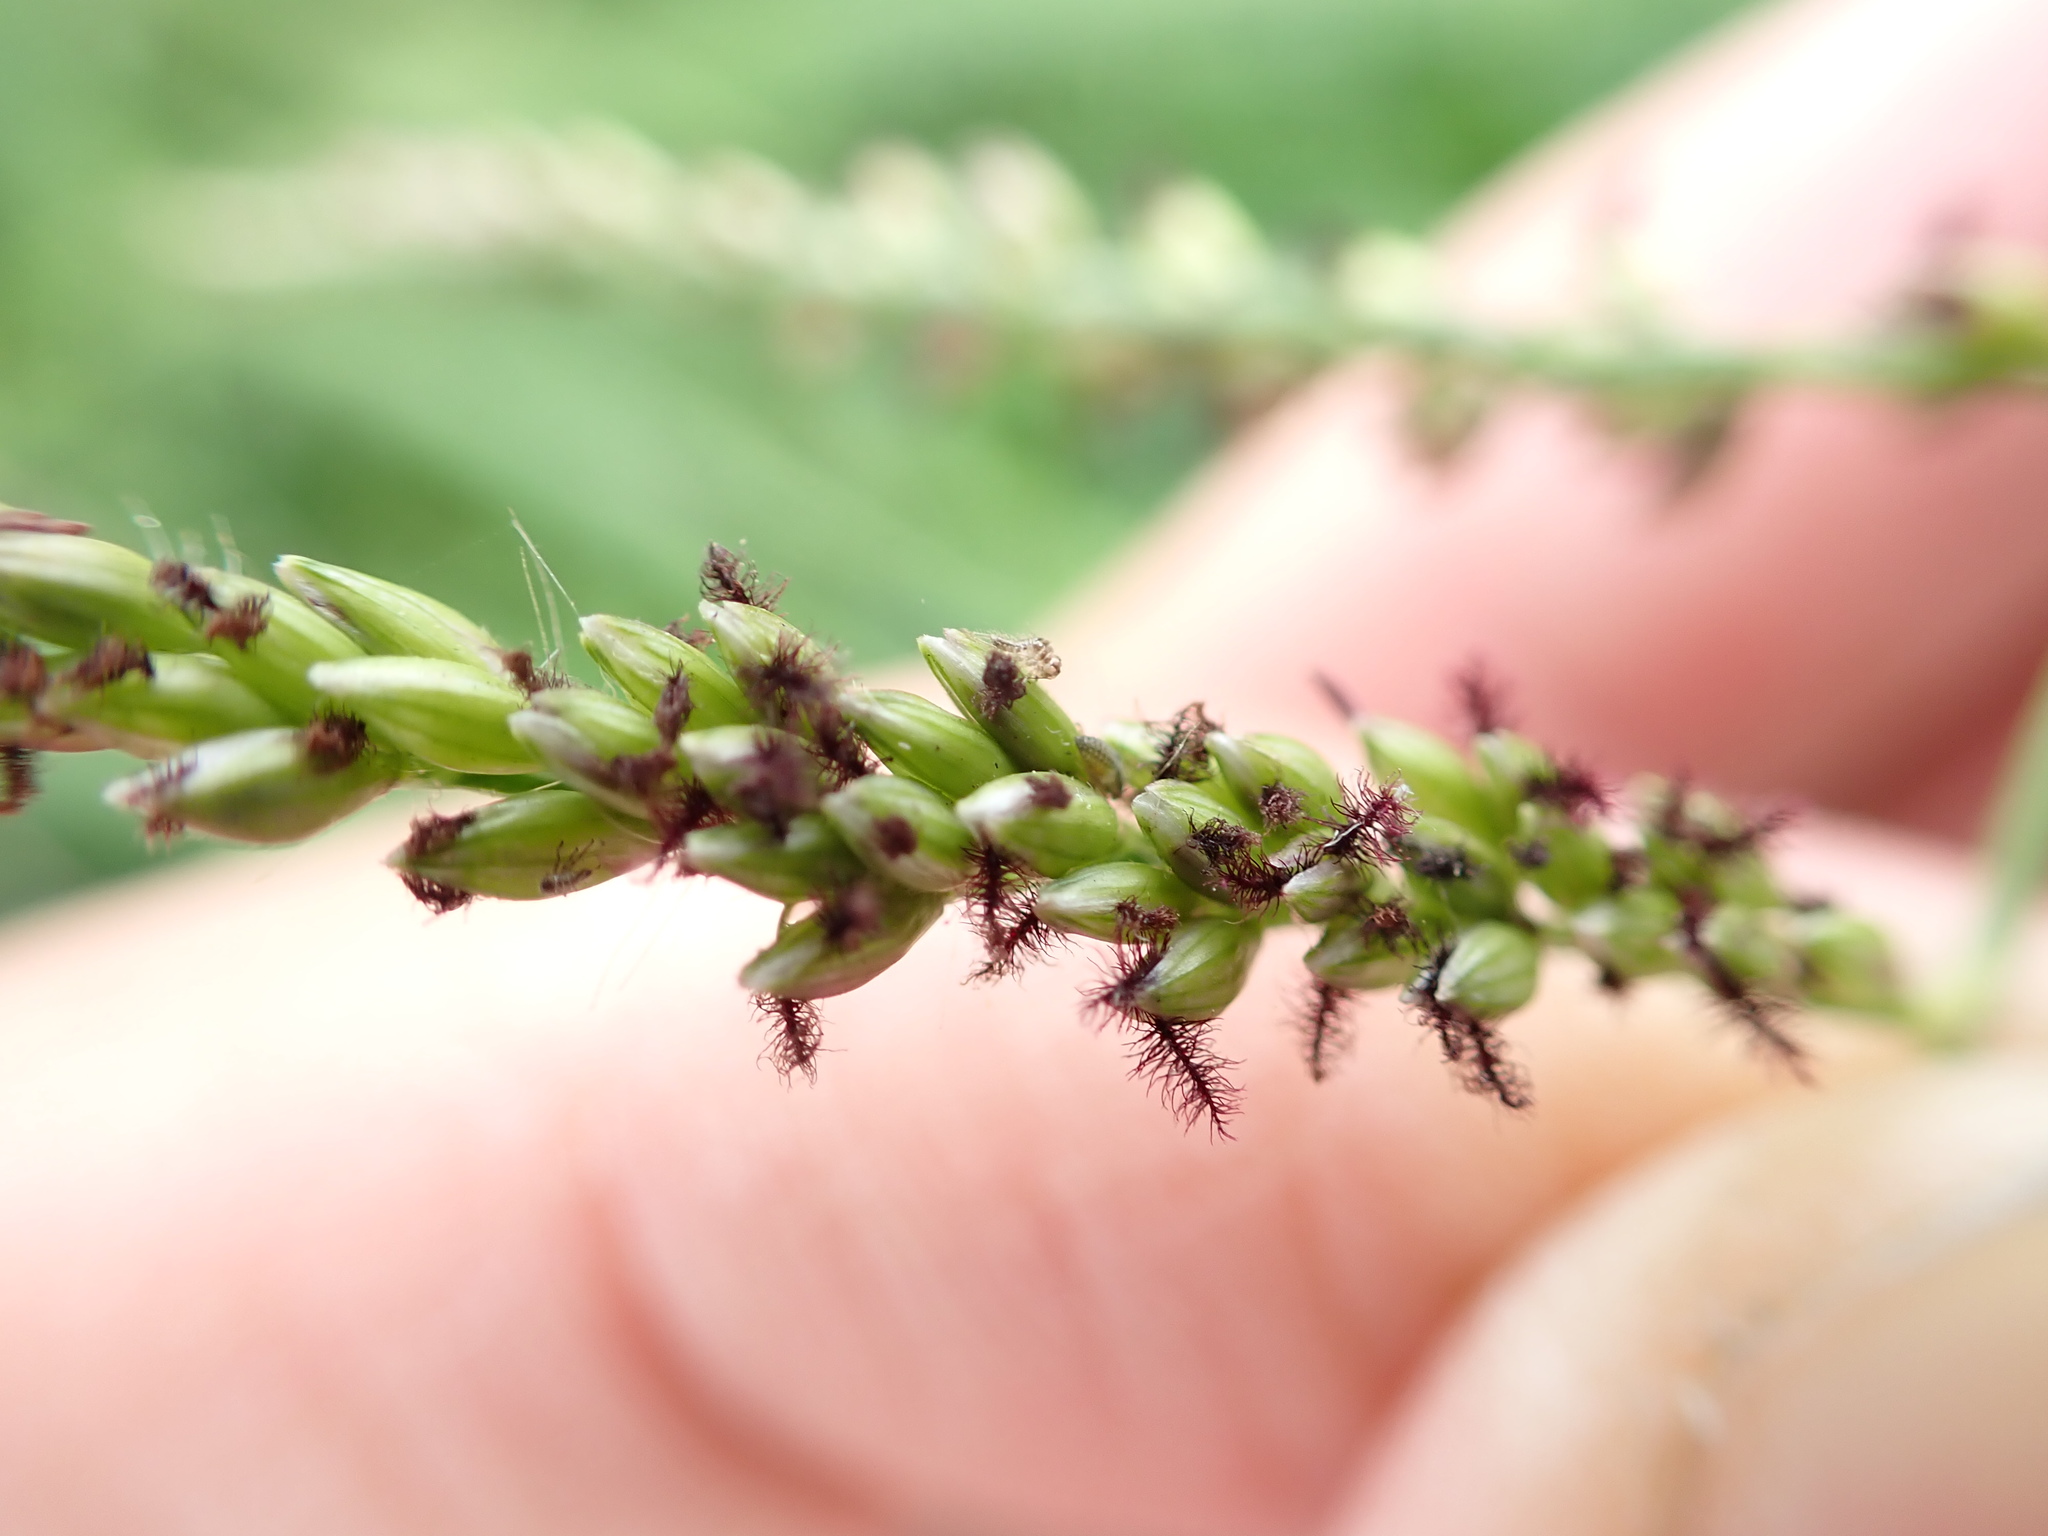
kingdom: Plantae
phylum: Tracheophyta
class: Liliopsida
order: Poales
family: Poaceae
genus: Urochloa
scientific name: Urochloa mutica
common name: Para grass
